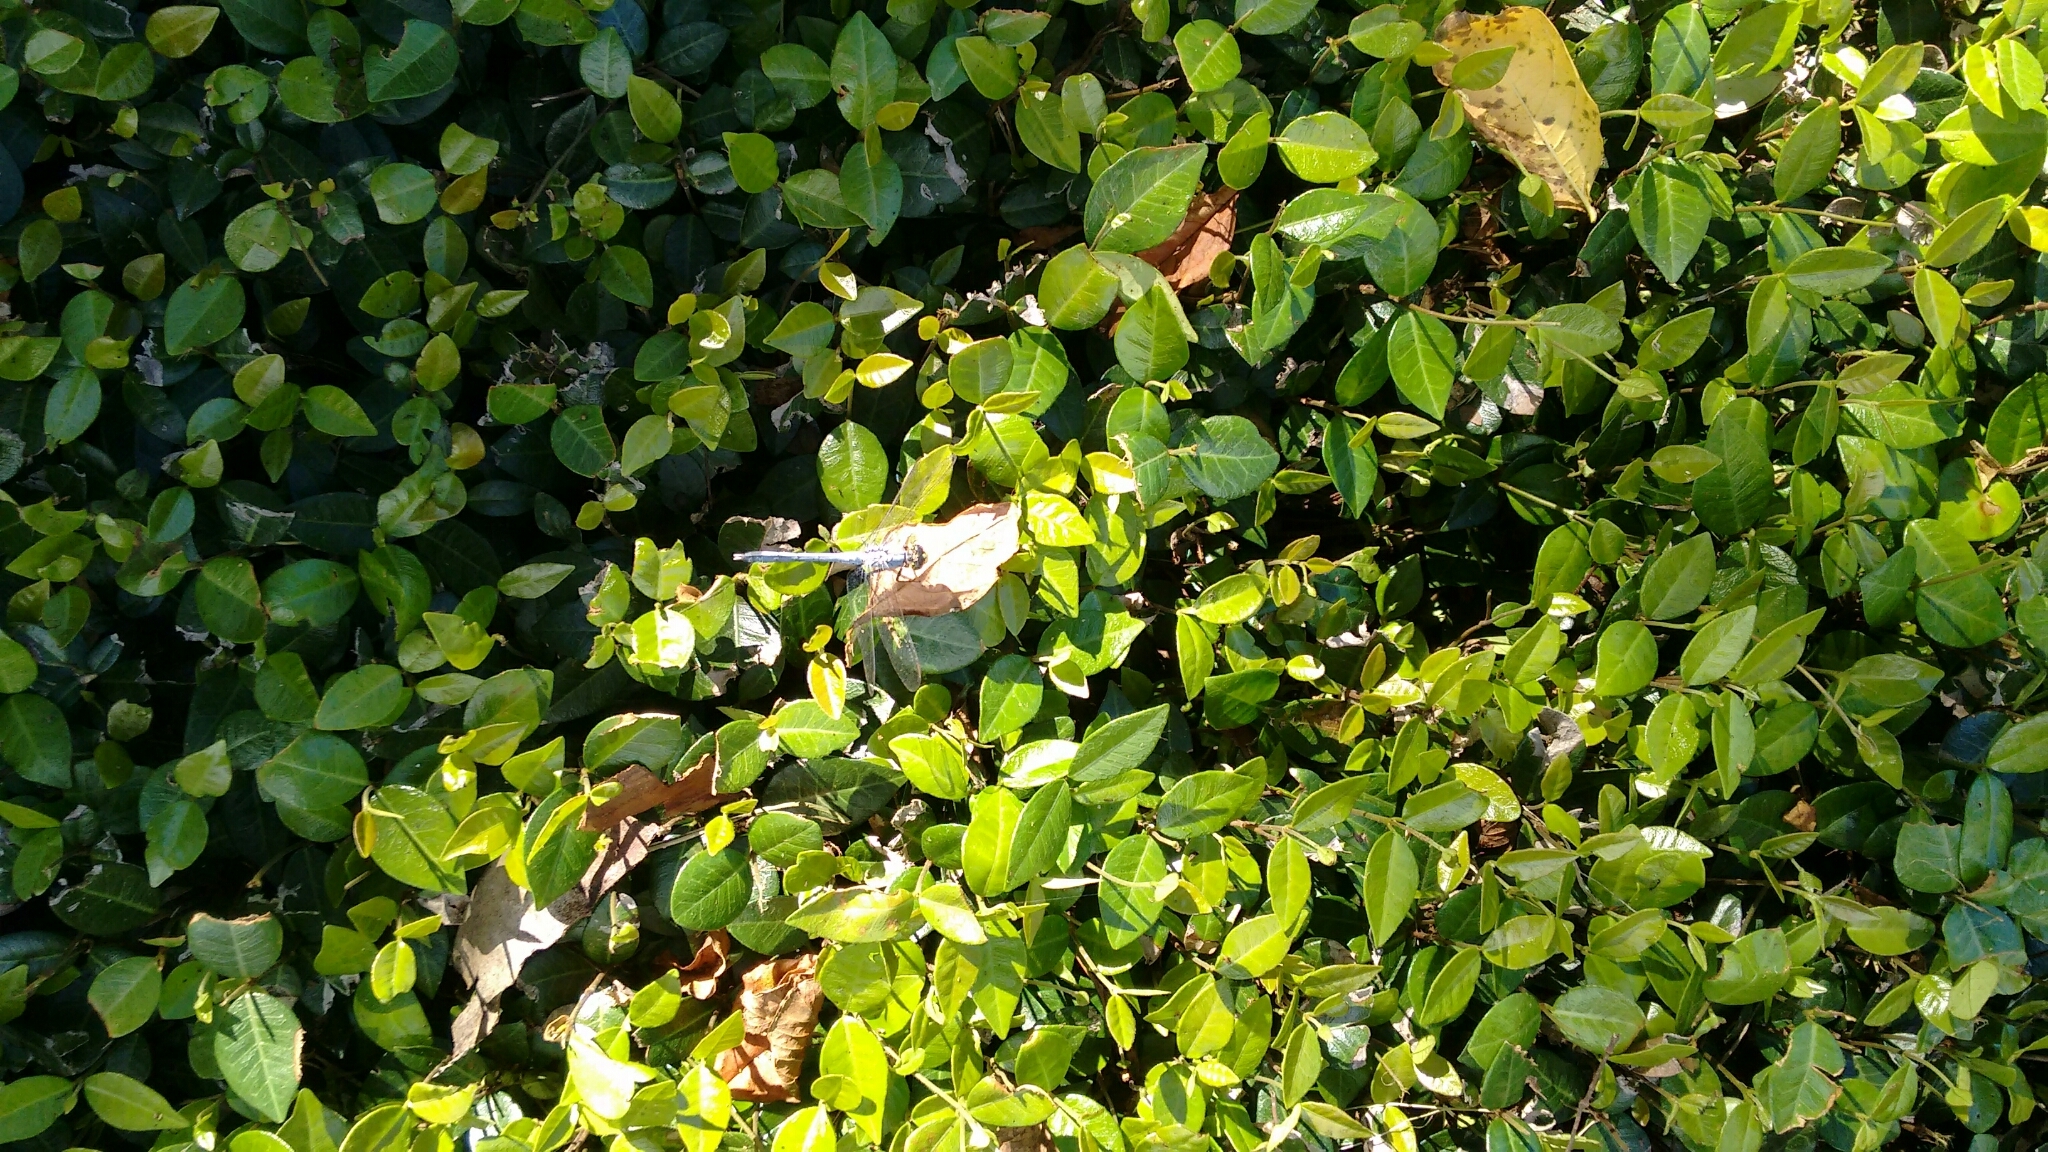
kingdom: Animalia
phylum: Arthropoda
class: Insecta
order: Odonata
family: Libellulidae
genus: Pachydiplax
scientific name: Pachydiplax longipennis
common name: Blue dasher
